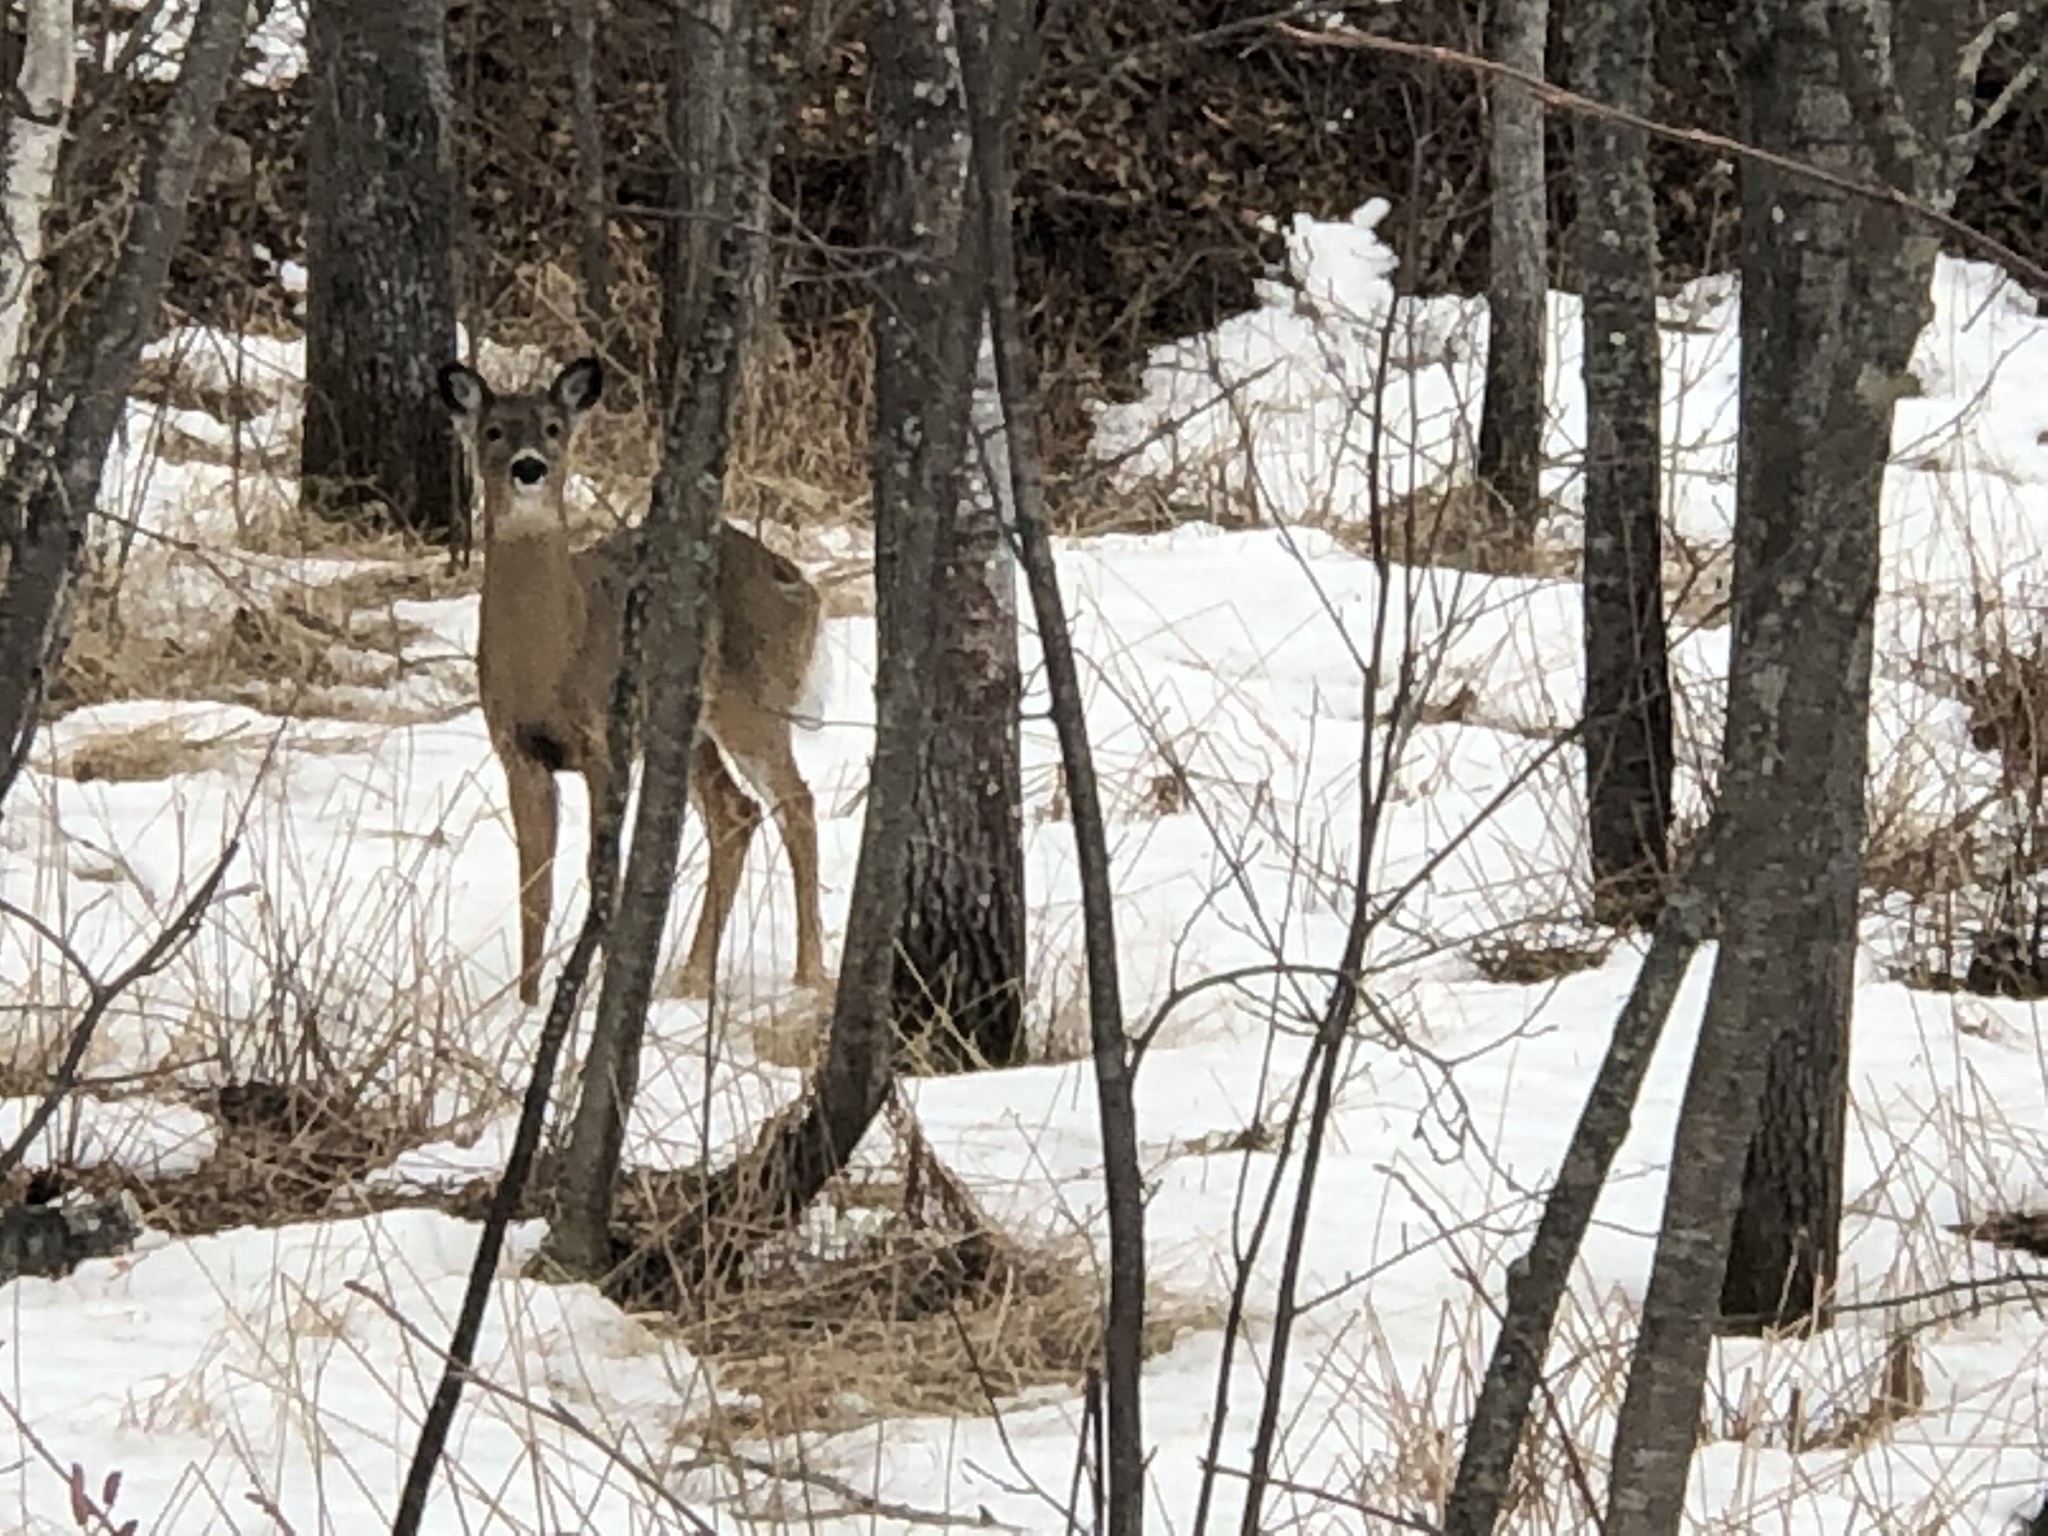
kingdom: Animalia
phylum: Chordata
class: Mammalia
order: Artiodactyla
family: Cervidae
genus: Odocoileus
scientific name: Odocoileus virginianus
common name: White-tailed deer
